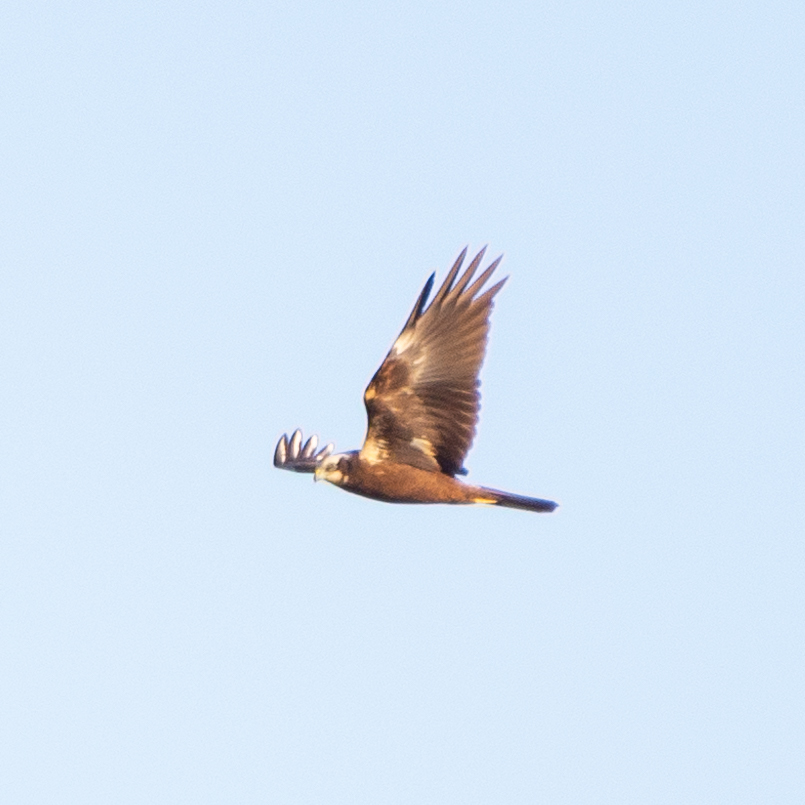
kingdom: Animalia
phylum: Chordata
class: Aves
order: Accipitriformes
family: Accipitridae
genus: Circus
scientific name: Circus aeruginosus
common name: Western marsh harrier
